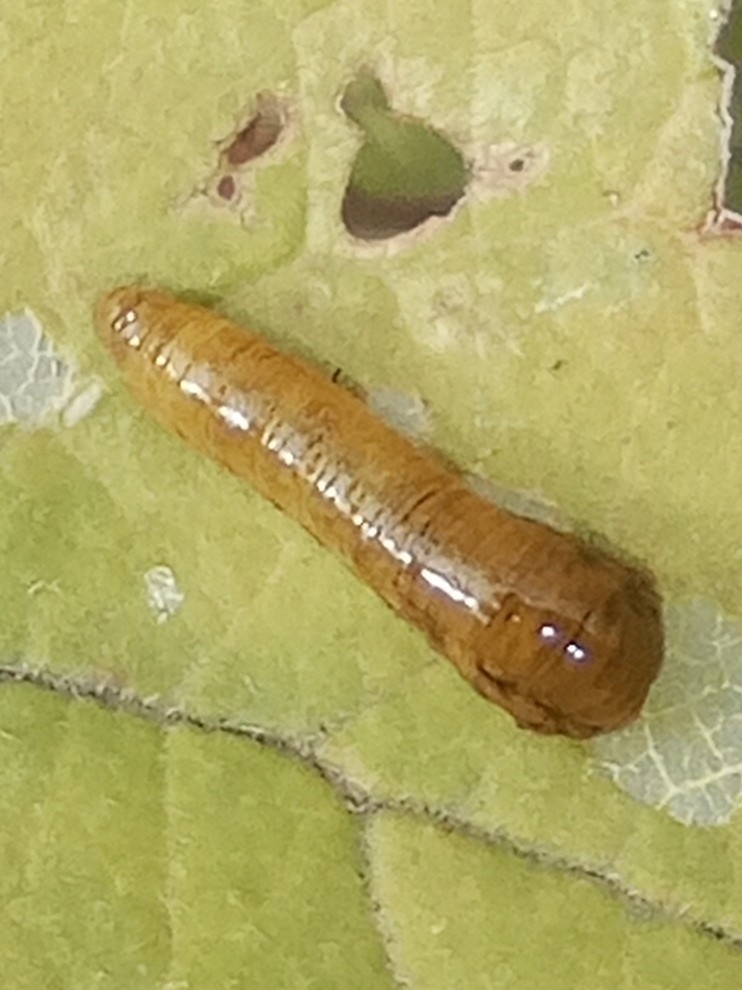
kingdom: Animalia
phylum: Arthropoda
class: Insecta
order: Hymenoptera
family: Tenthredinidae
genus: Caliroa
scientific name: Caliroa cerasi
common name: Pear sawfly
